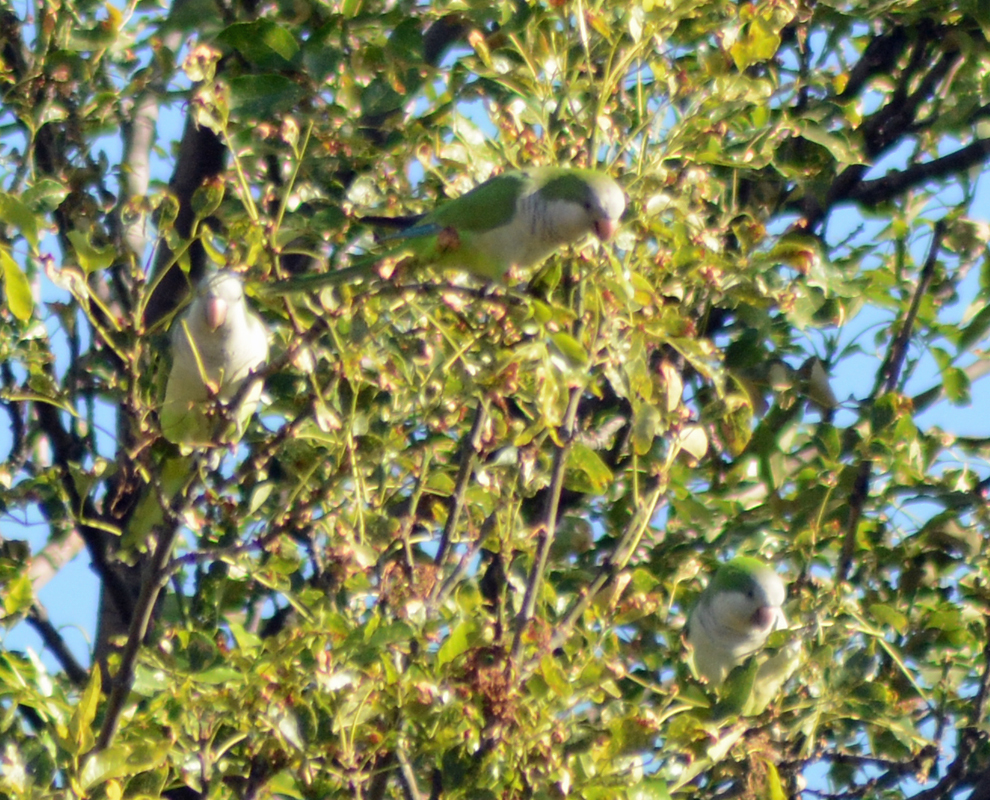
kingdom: Animalia
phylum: Chordata
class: Aves
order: Psittaciformes
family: Psittacidae
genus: Myiopsitta
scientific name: Myiopsitta monachus
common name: Monk parakeet
